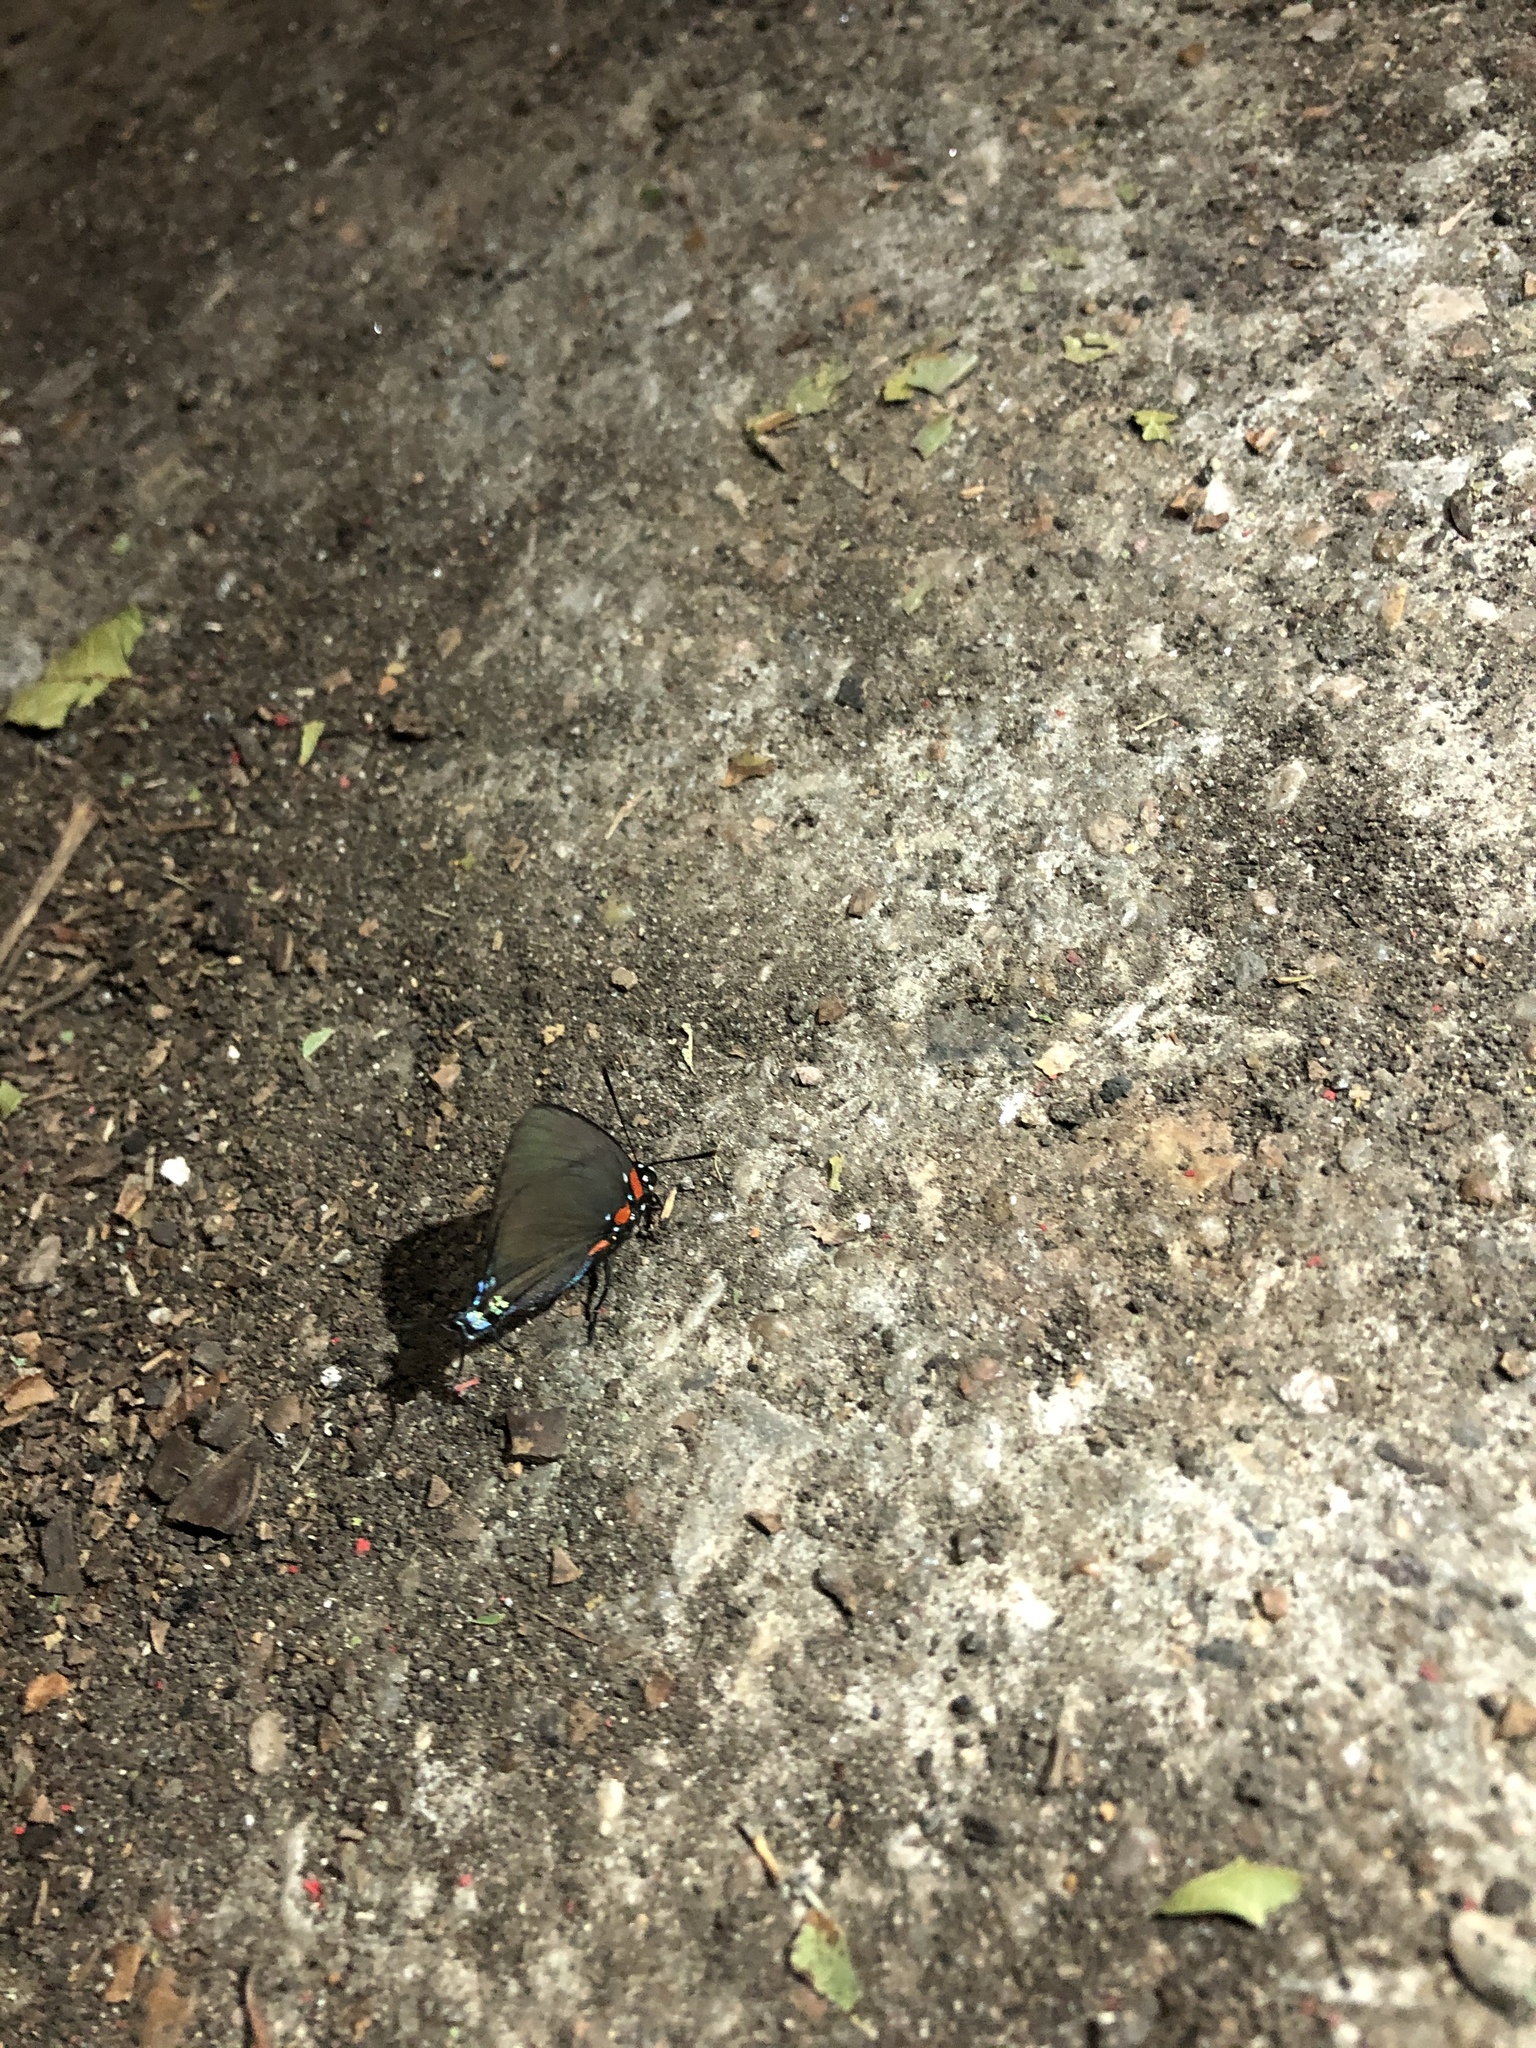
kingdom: Animalia
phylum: Arthropoda
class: Insecta
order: Lepidoptera
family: Lycaenidae
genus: Atlides
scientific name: Atlides halesus
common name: Great purple hairstreak
